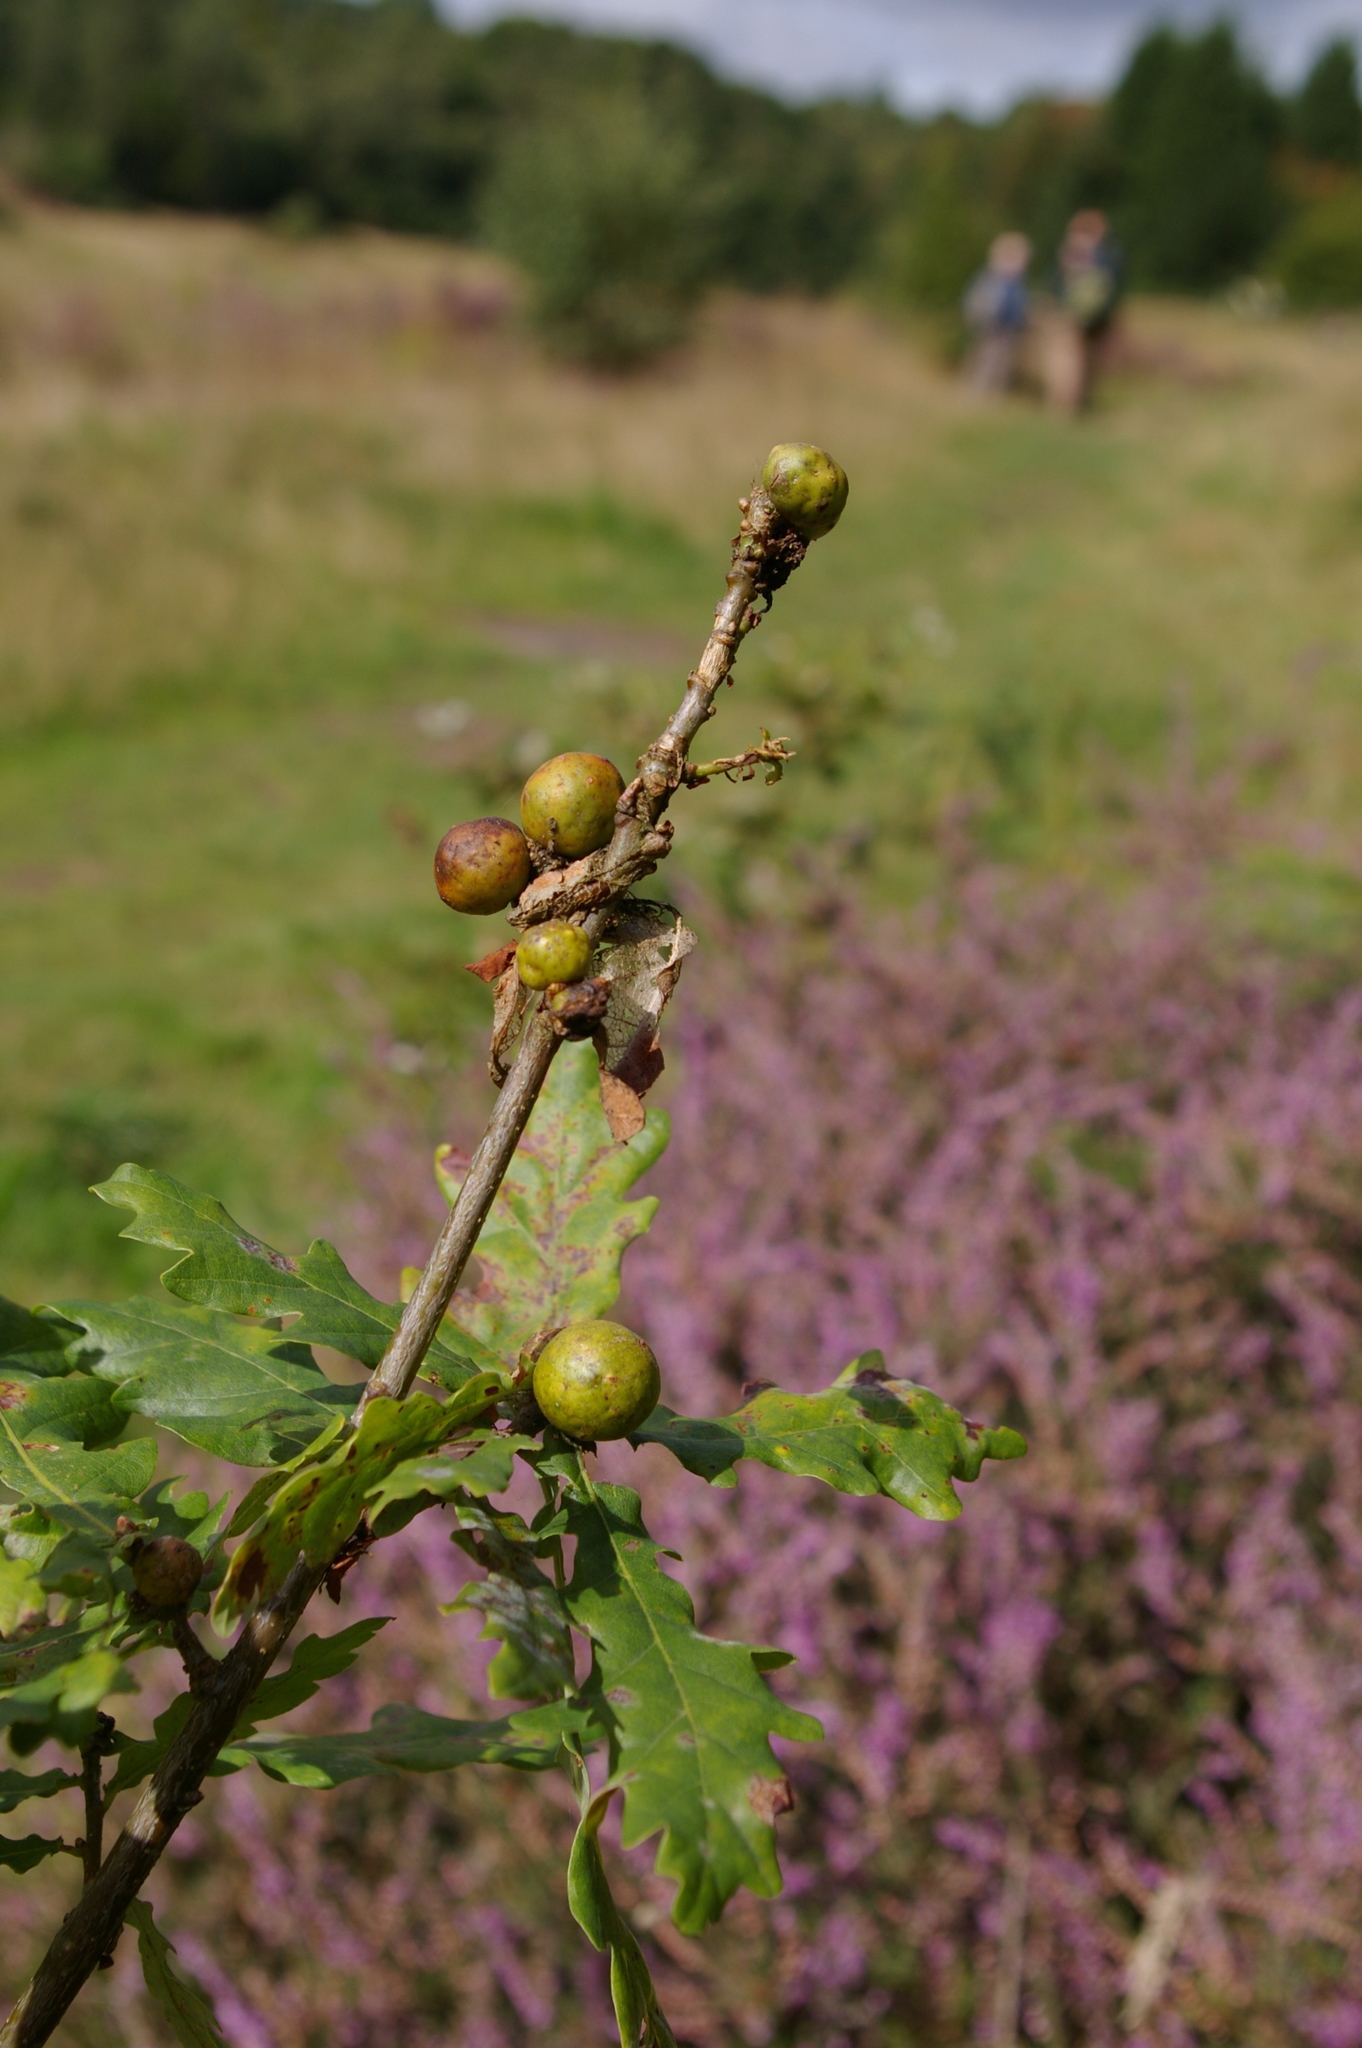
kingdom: Animalia
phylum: Arthropoda
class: Insecta
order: Hymenoptera
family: Cynipidae
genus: Andricus
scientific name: Andricus kollari
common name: Marble gall
